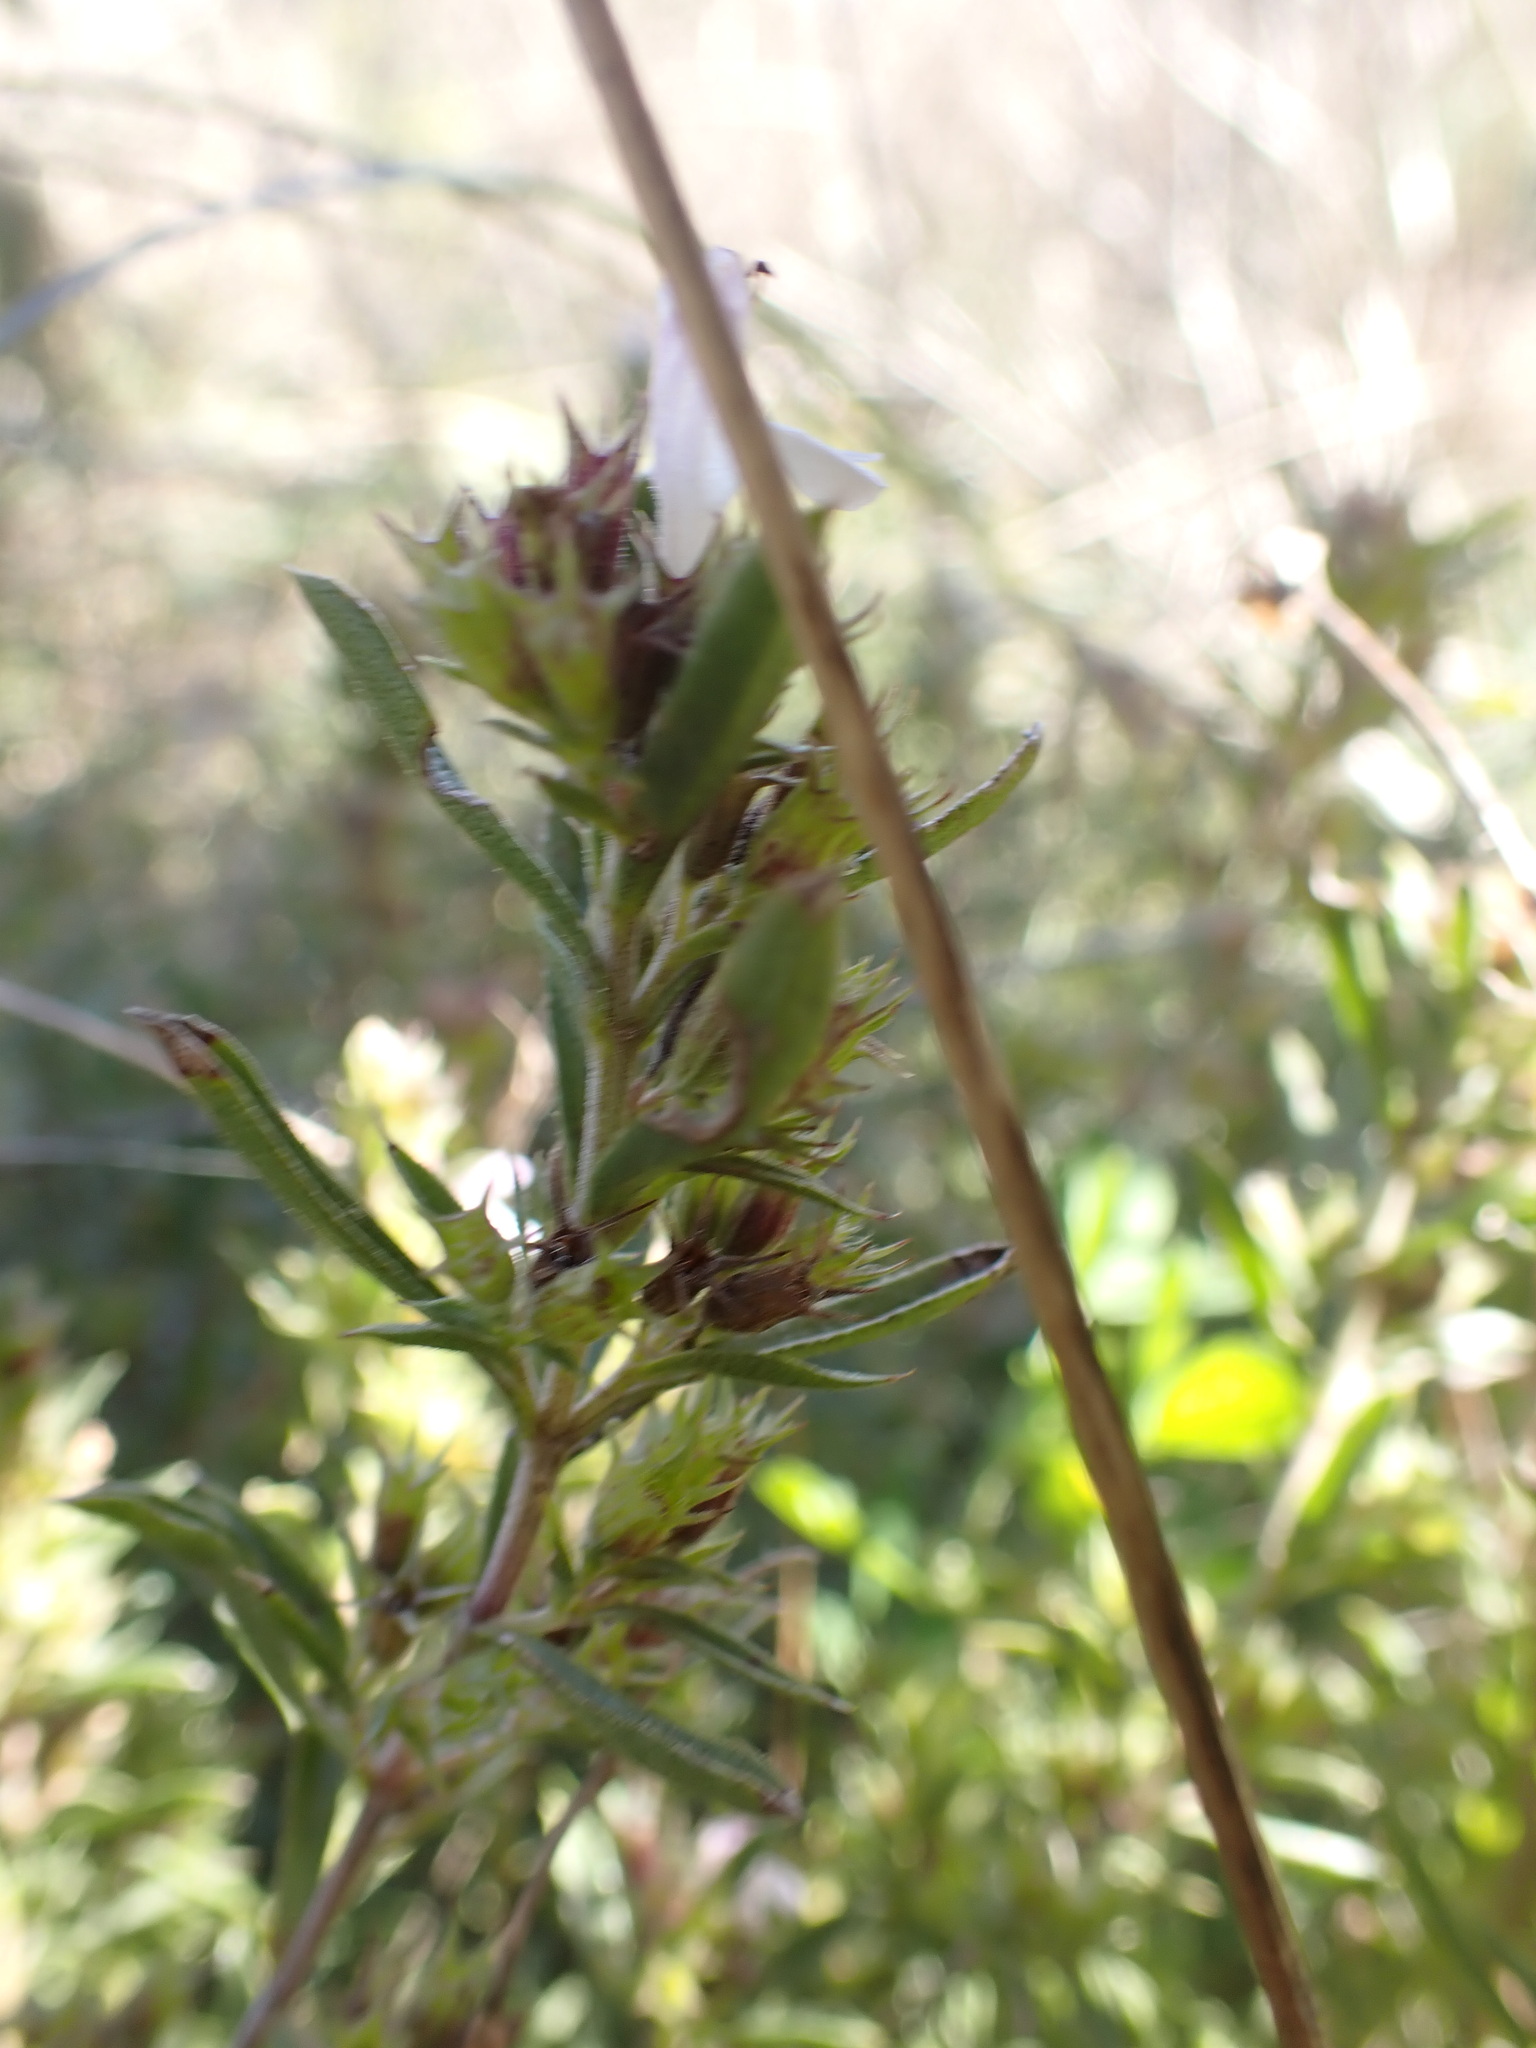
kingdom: Plantae
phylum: Tracheophyta
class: Magnoliopsida
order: Lamiales
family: Lamiaceae
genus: Satureja
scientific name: Satureja montana
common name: Winter savory
